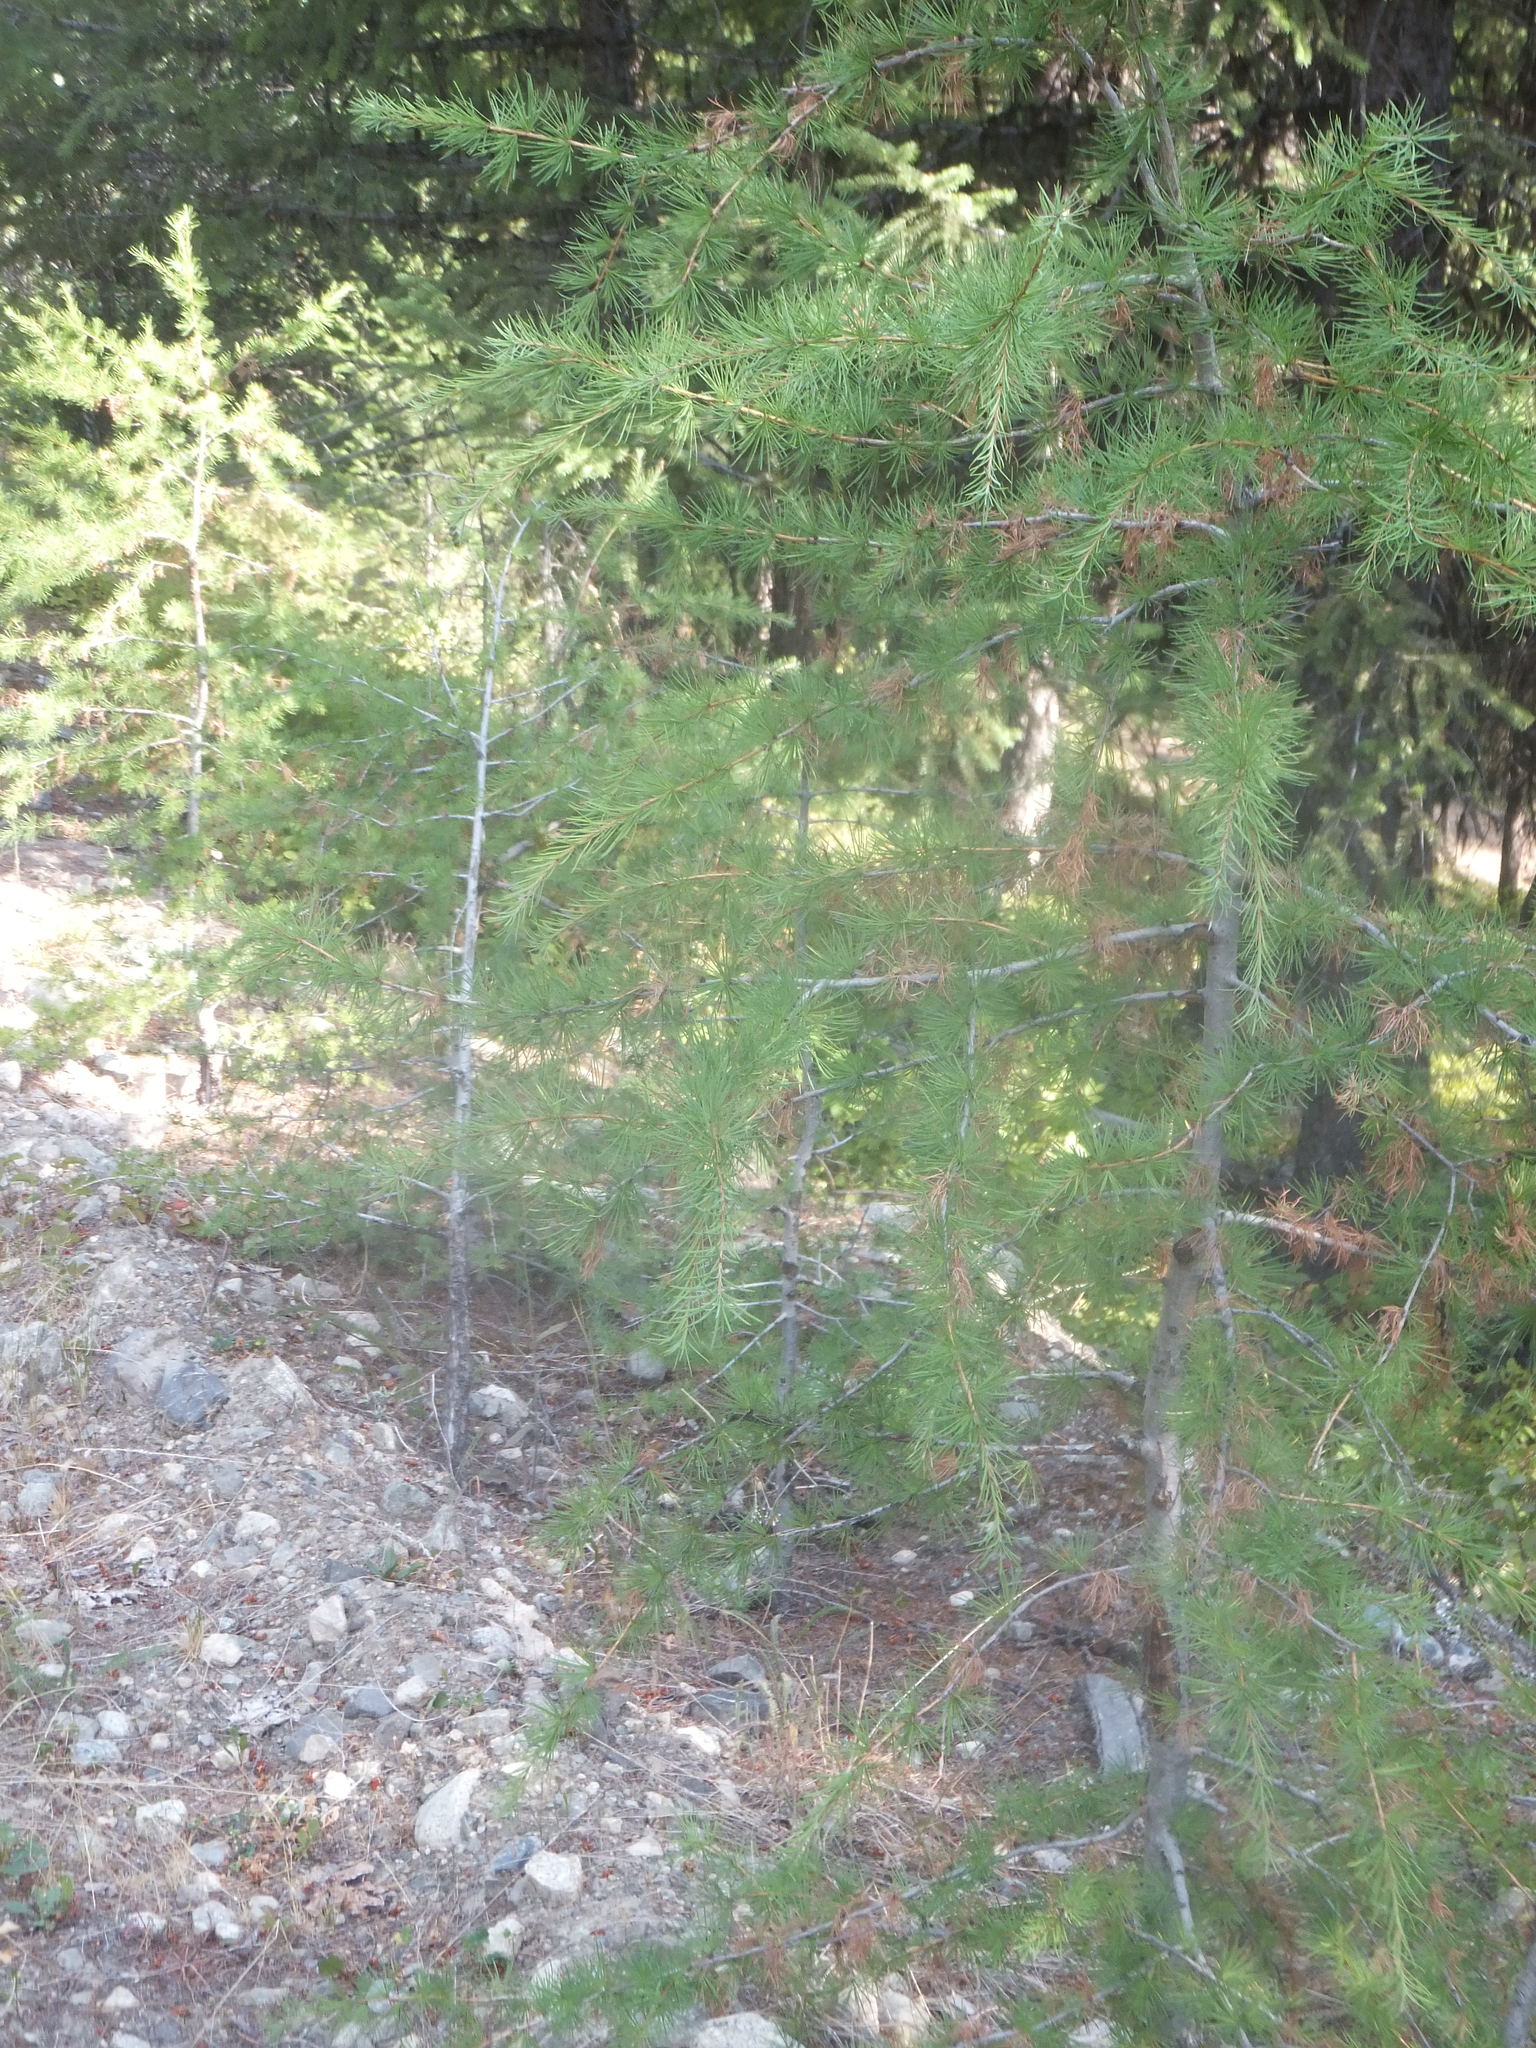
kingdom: Plantae
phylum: Tracheophyta
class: Pinopsida
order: Pinales
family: Pinaceae
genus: Larix
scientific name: Larix occidentalis
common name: Western larch
